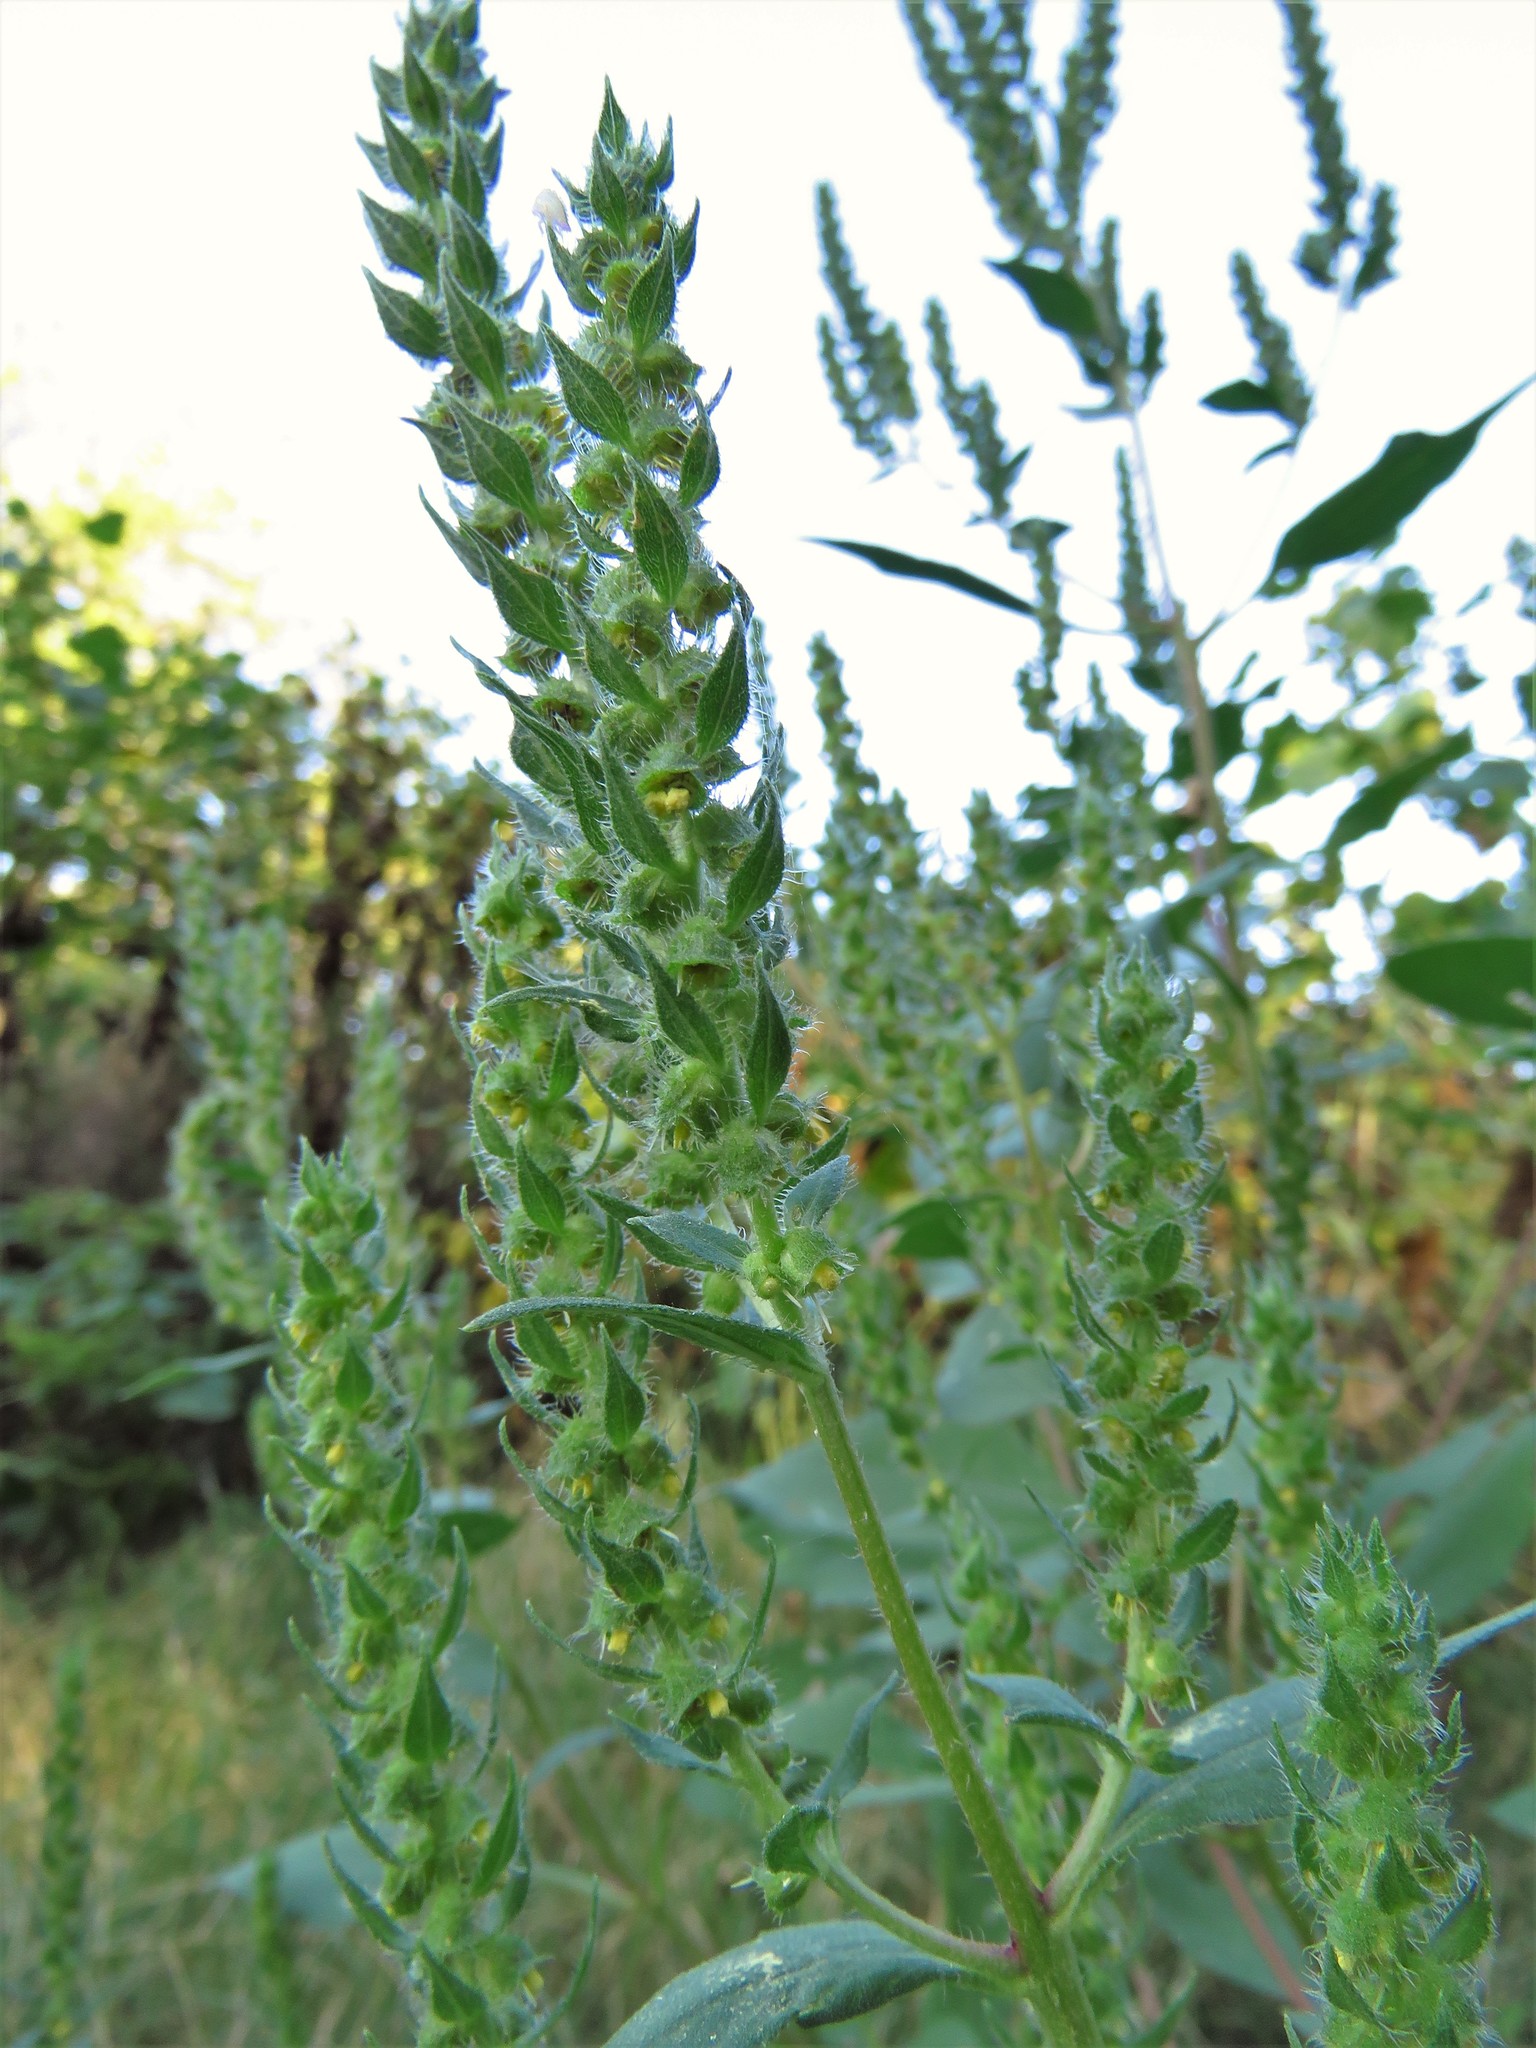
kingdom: Plantae
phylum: Tracheophyta
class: Magnoliopsida
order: Asterales
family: Asteraceae
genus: Iva
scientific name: Iva annua
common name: Marsh-elder
